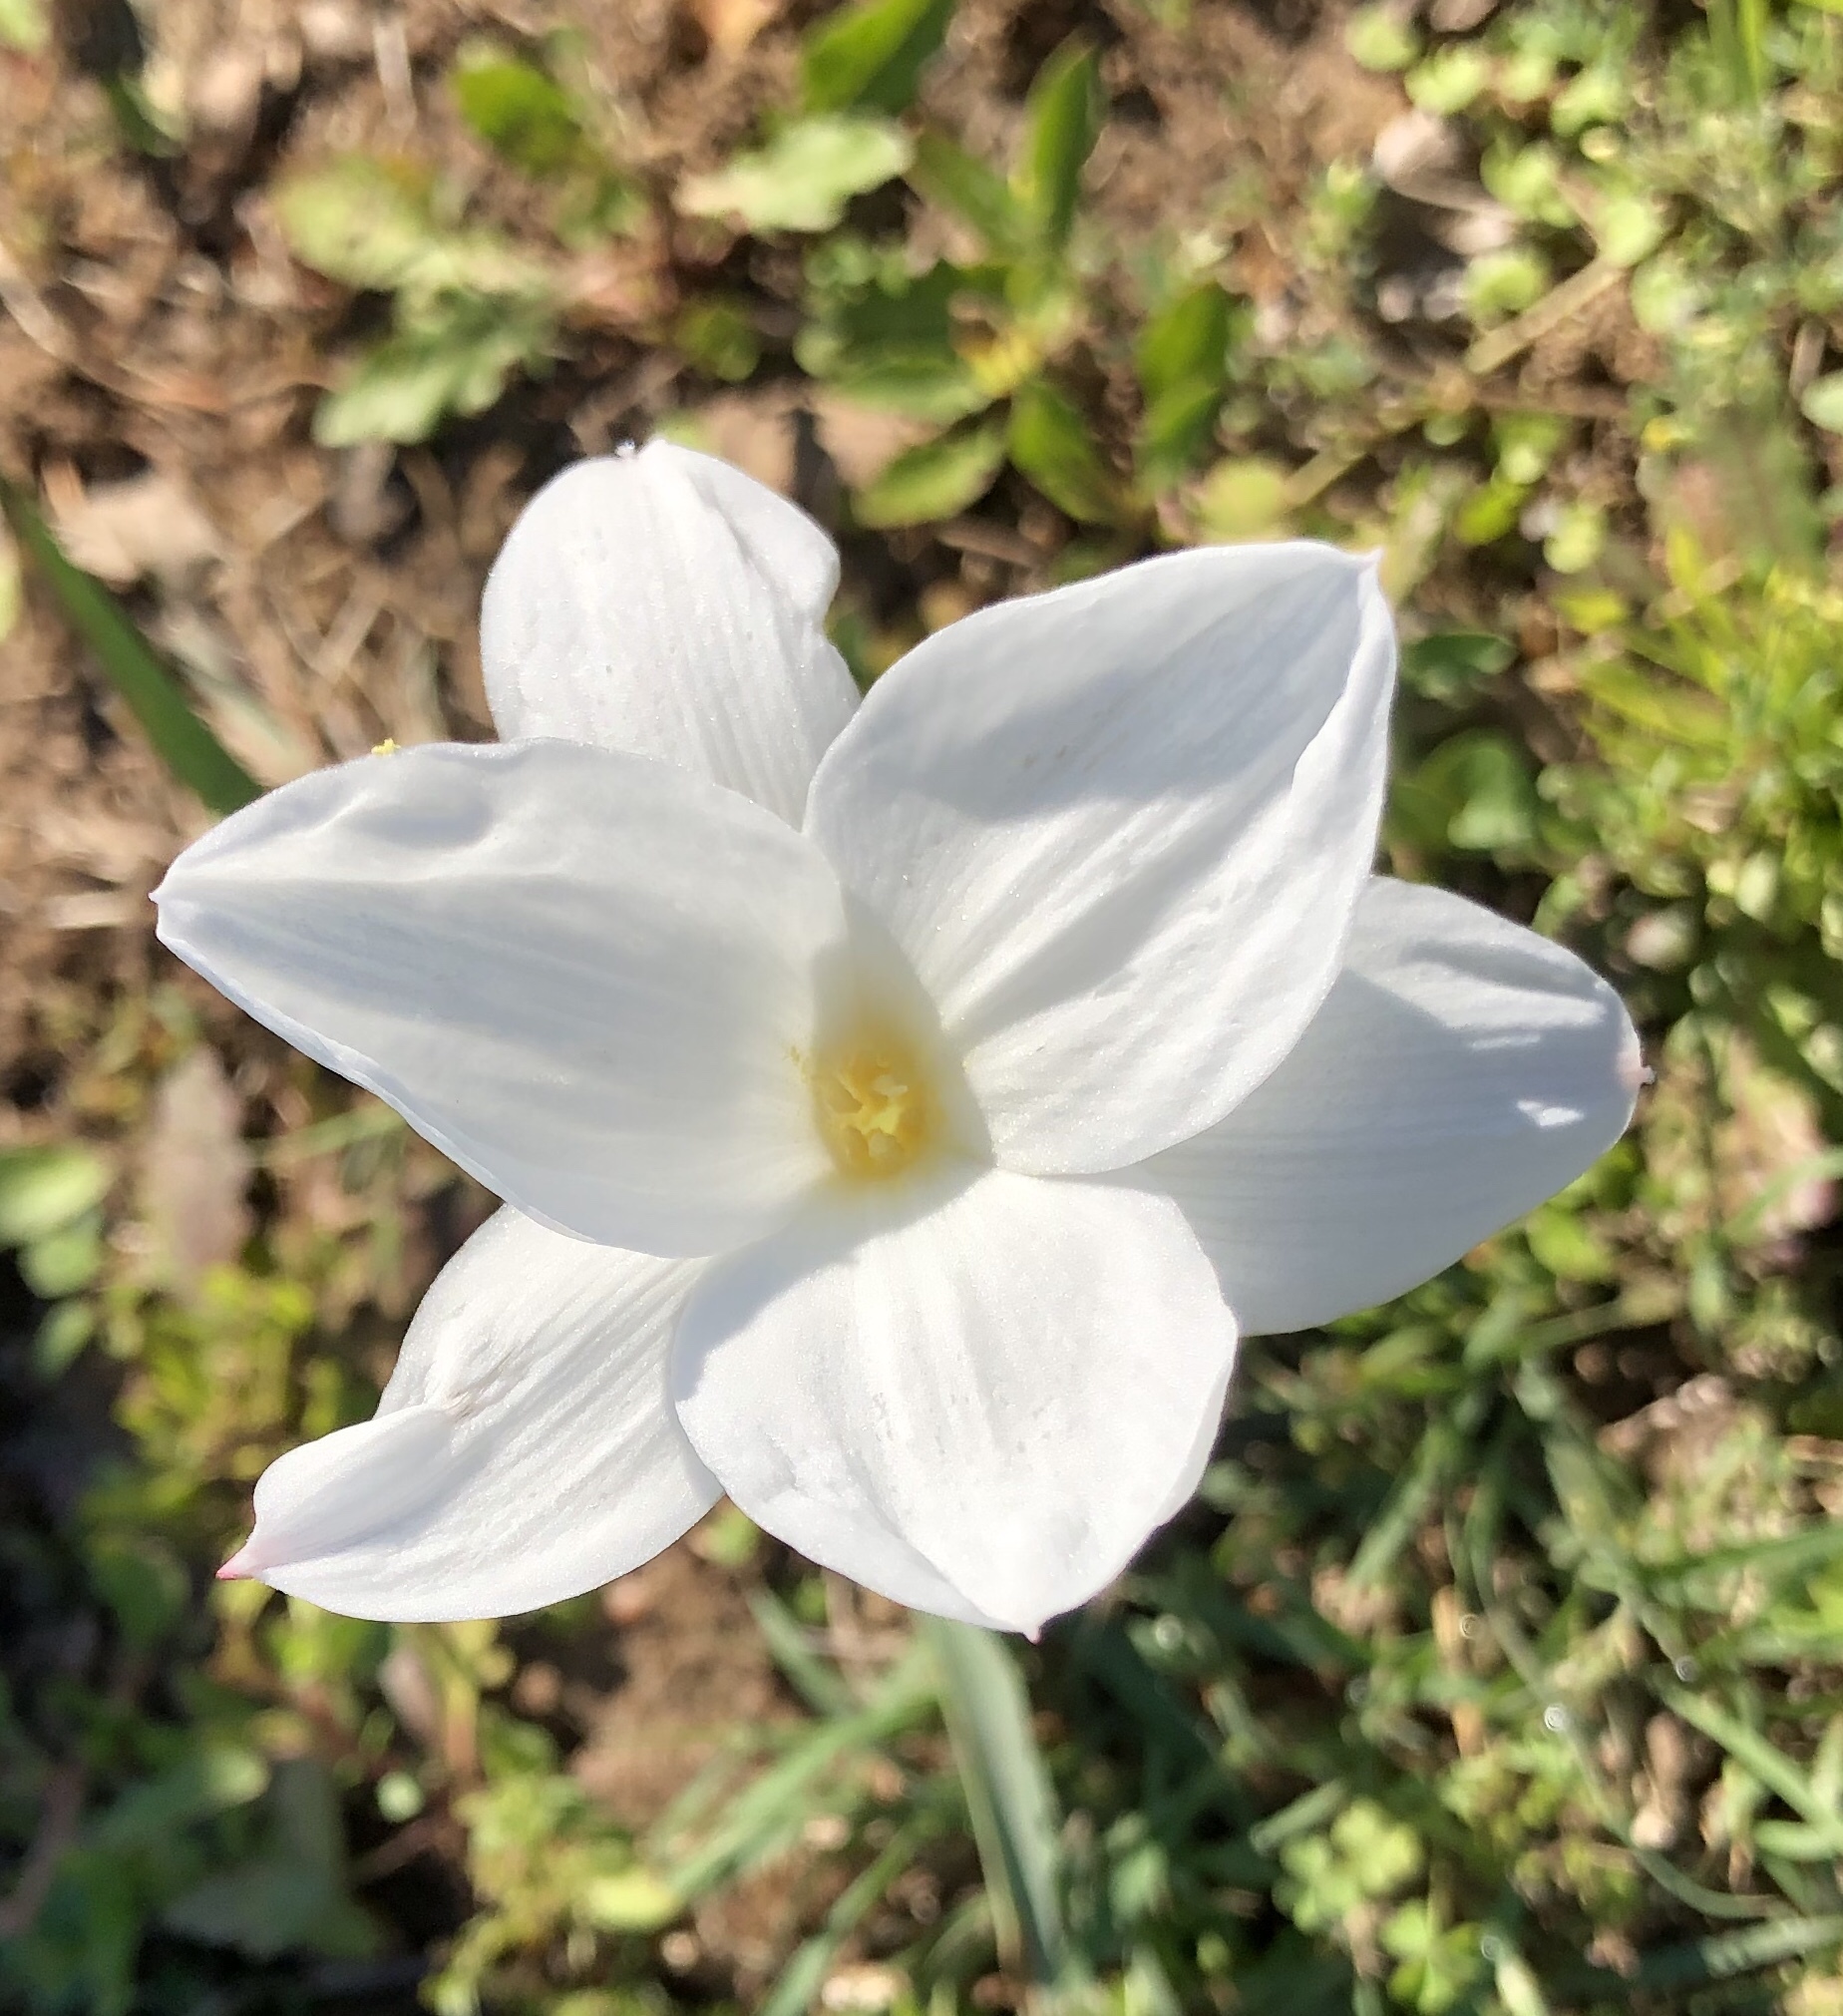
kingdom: Plantae
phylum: Tracheophyta
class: Liliopsida
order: Asparagales
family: Amaryllidaceae
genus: Zephyranthes
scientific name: Zephyranthes drummondii
